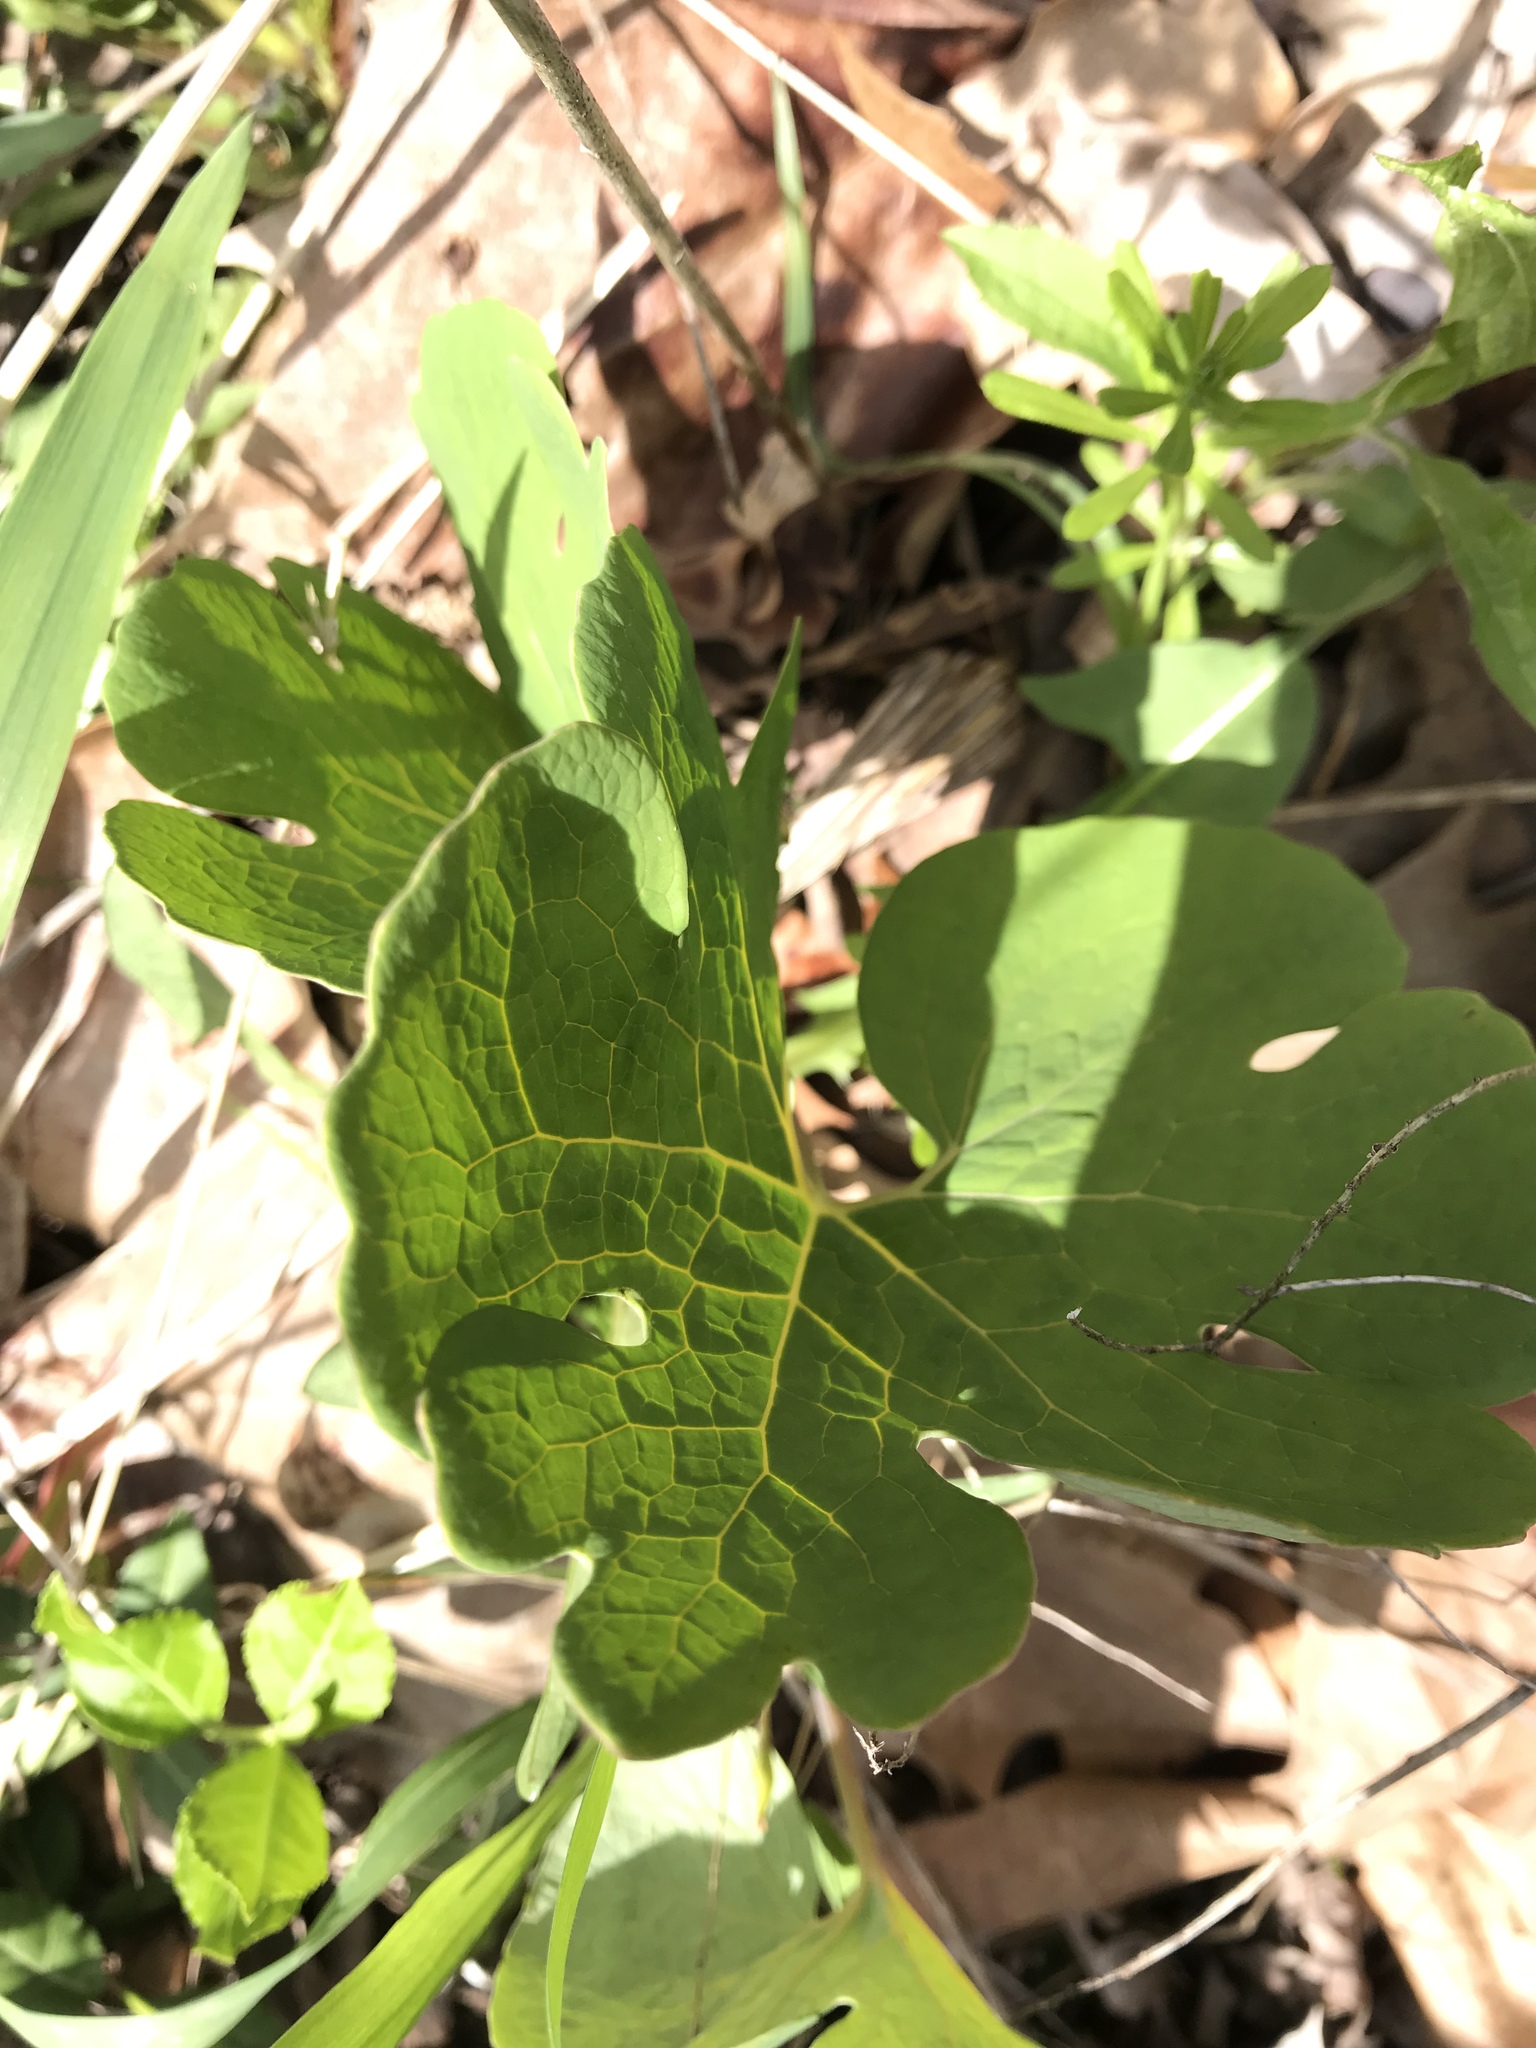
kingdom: Plantae
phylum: Tracheophyta
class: Magnoliopsida
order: Ranunculales
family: Papaveraceae
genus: Sanguinaria
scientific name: Sanguinaria canadensis
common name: Bloodroot
